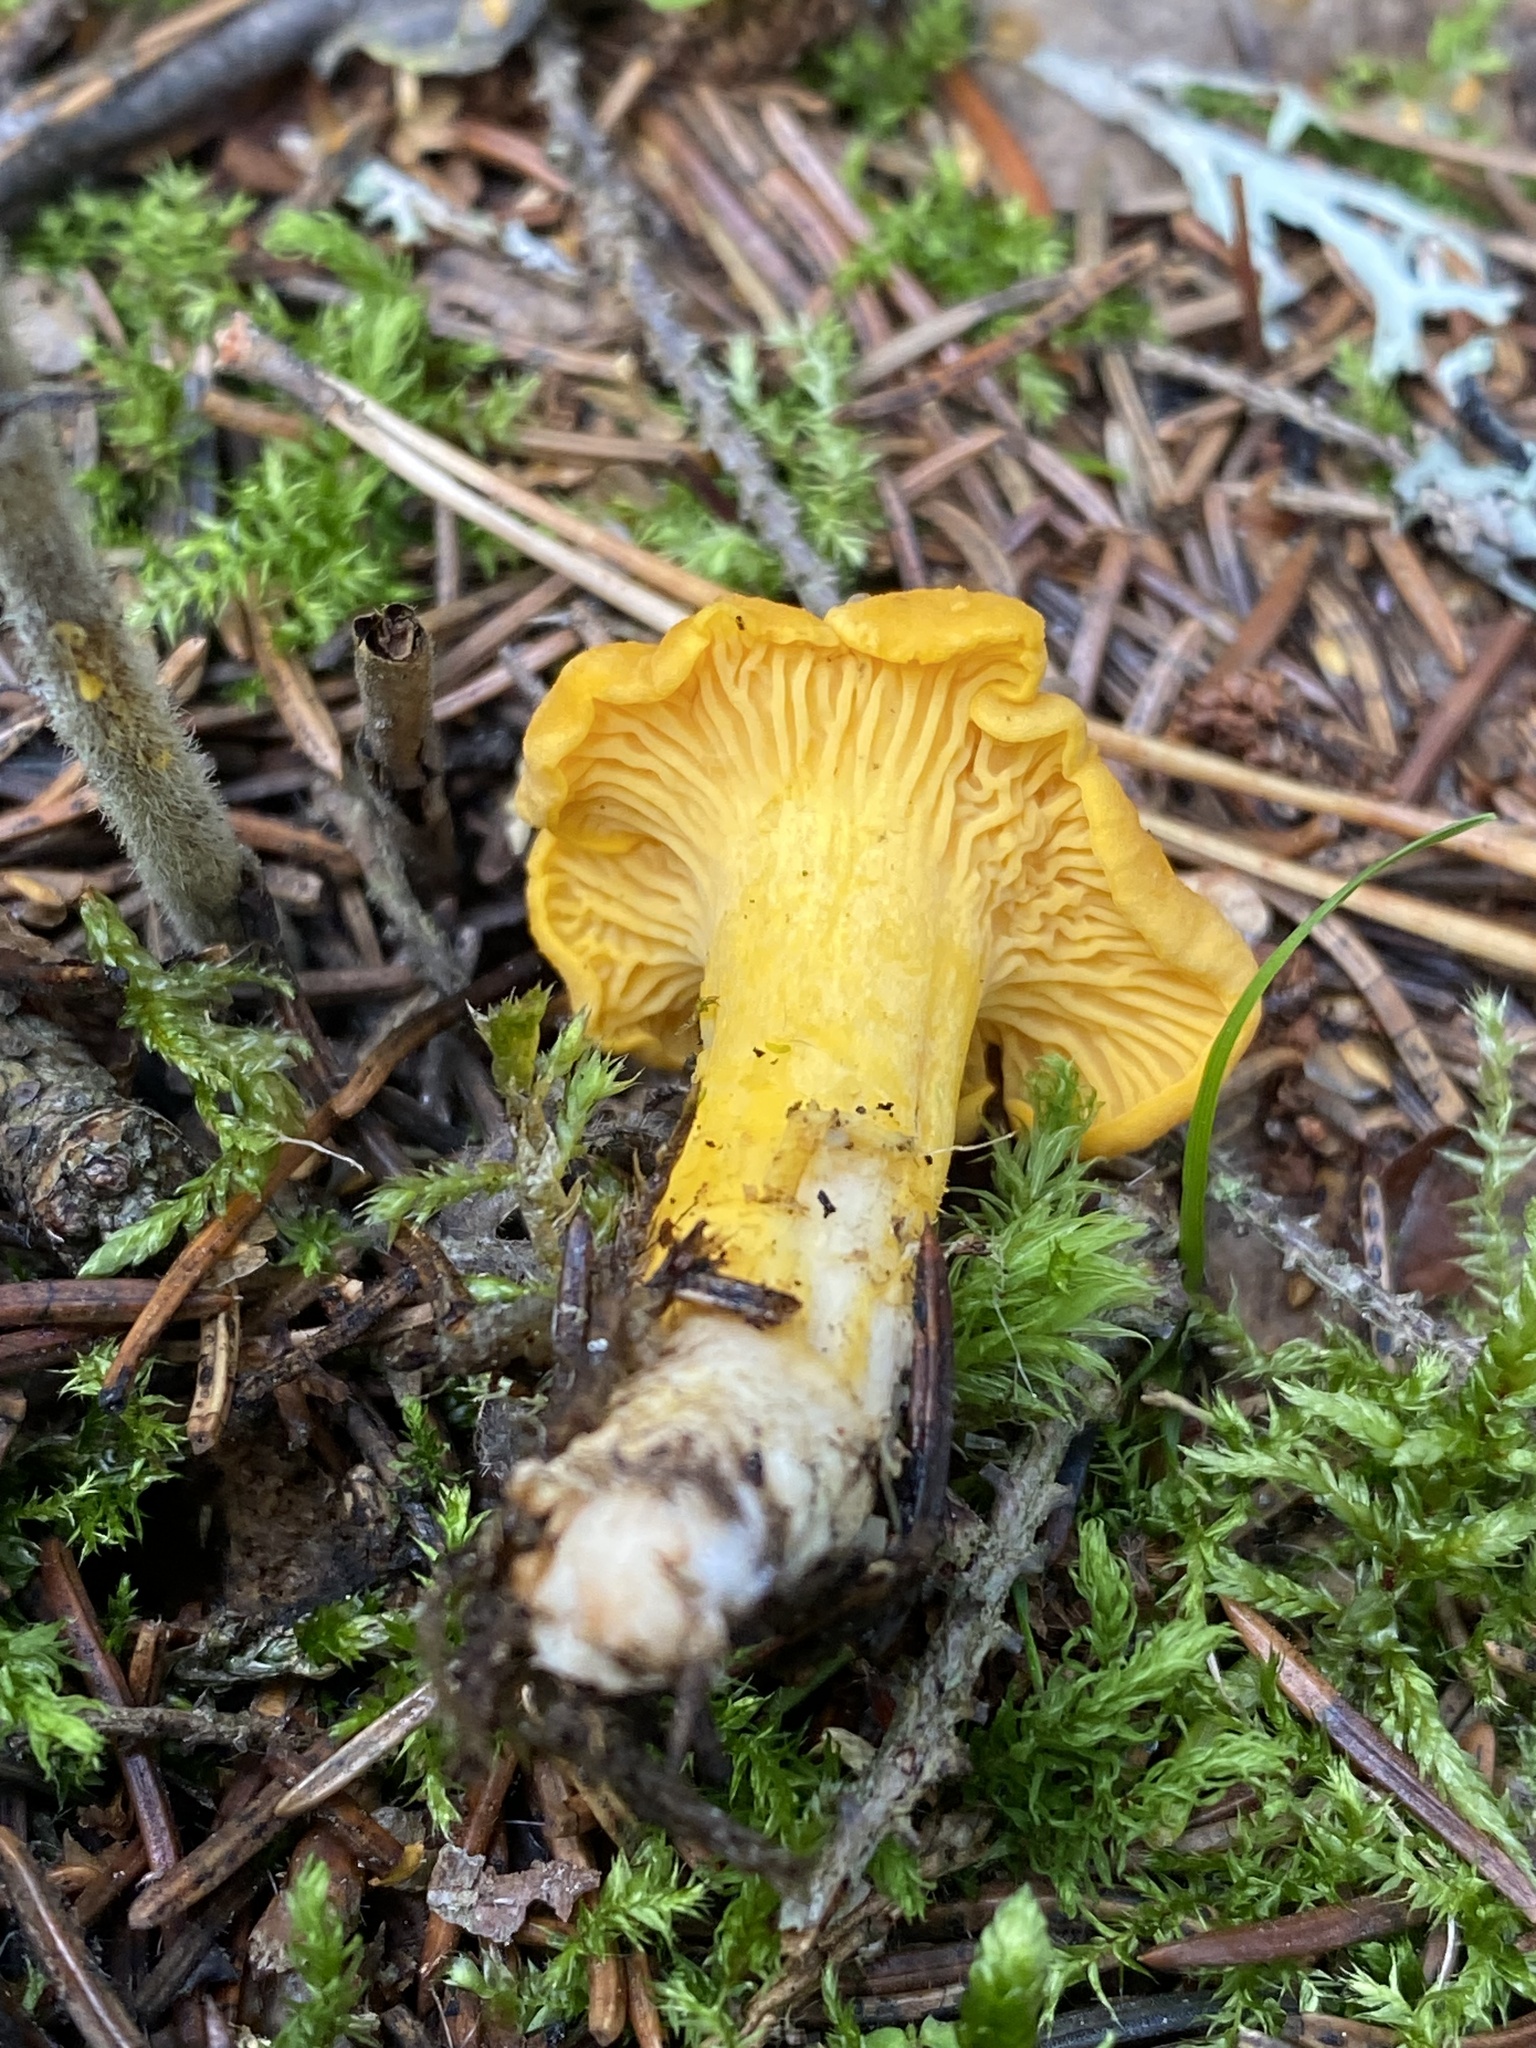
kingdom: Fungi
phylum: Basidiomycota
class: Agaricomycetes
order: Cantharellales
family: Hydnaceae
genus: Cantharellus
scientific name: Cantharellus cibarius
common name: Chanterelle
